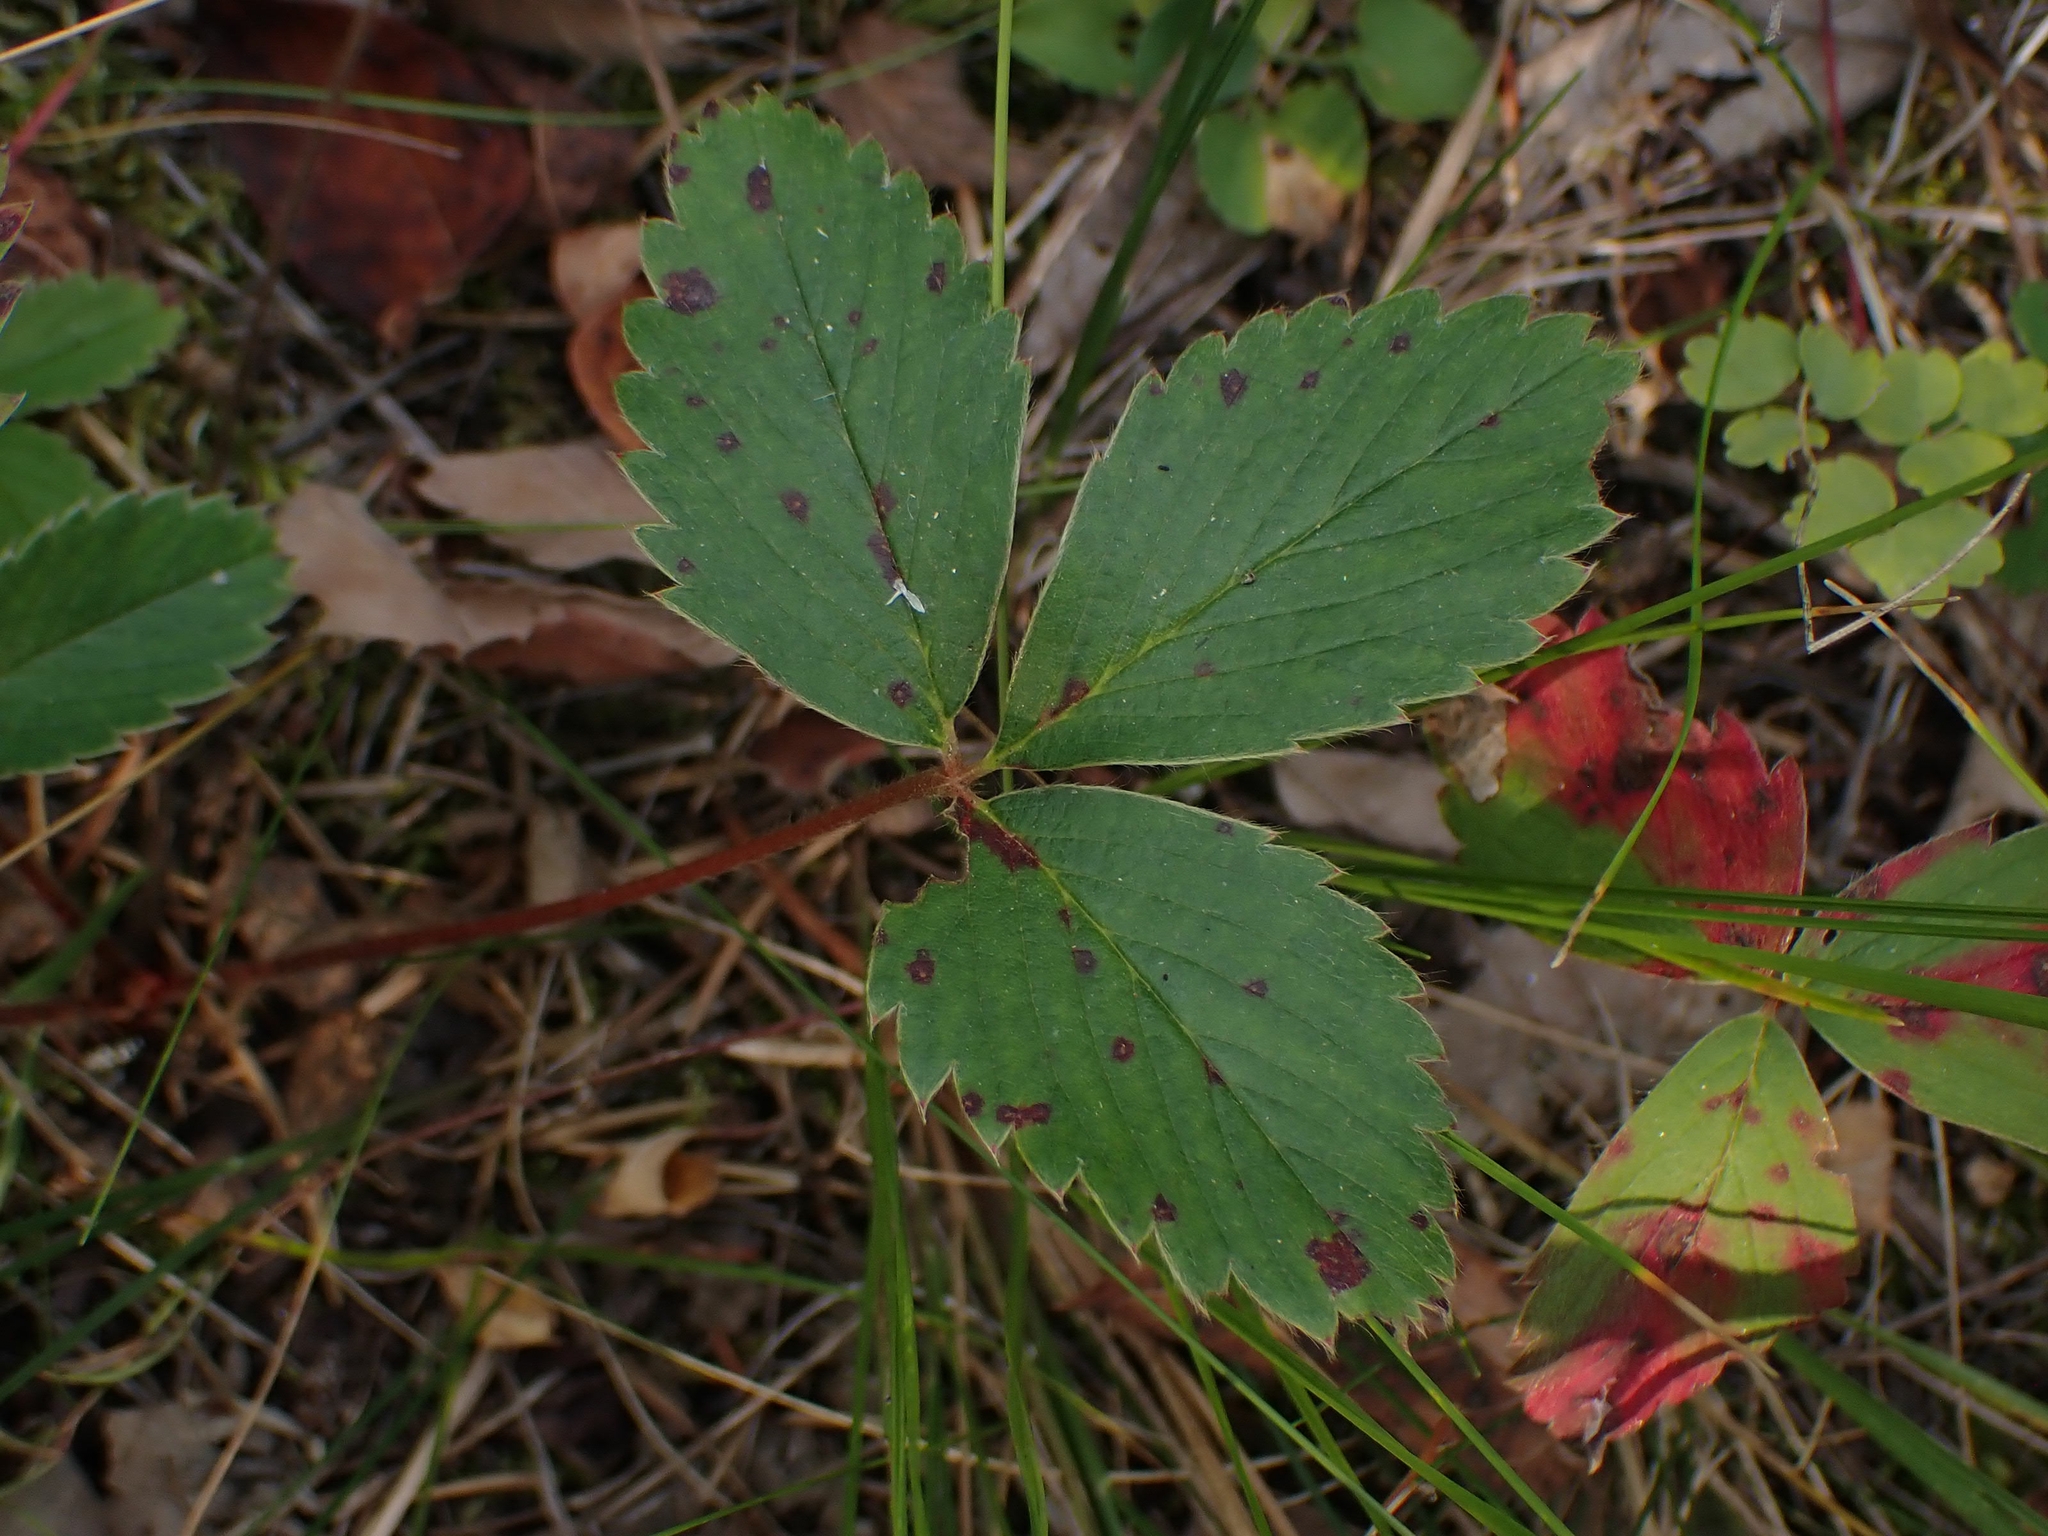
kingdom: Plantae
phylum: Tracheophyta
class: Magnoliopsida
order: Rosales
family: Rosaceae
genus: Fragaria
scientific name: Fragaria virginiana
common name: Thickleaved wild strawberry
